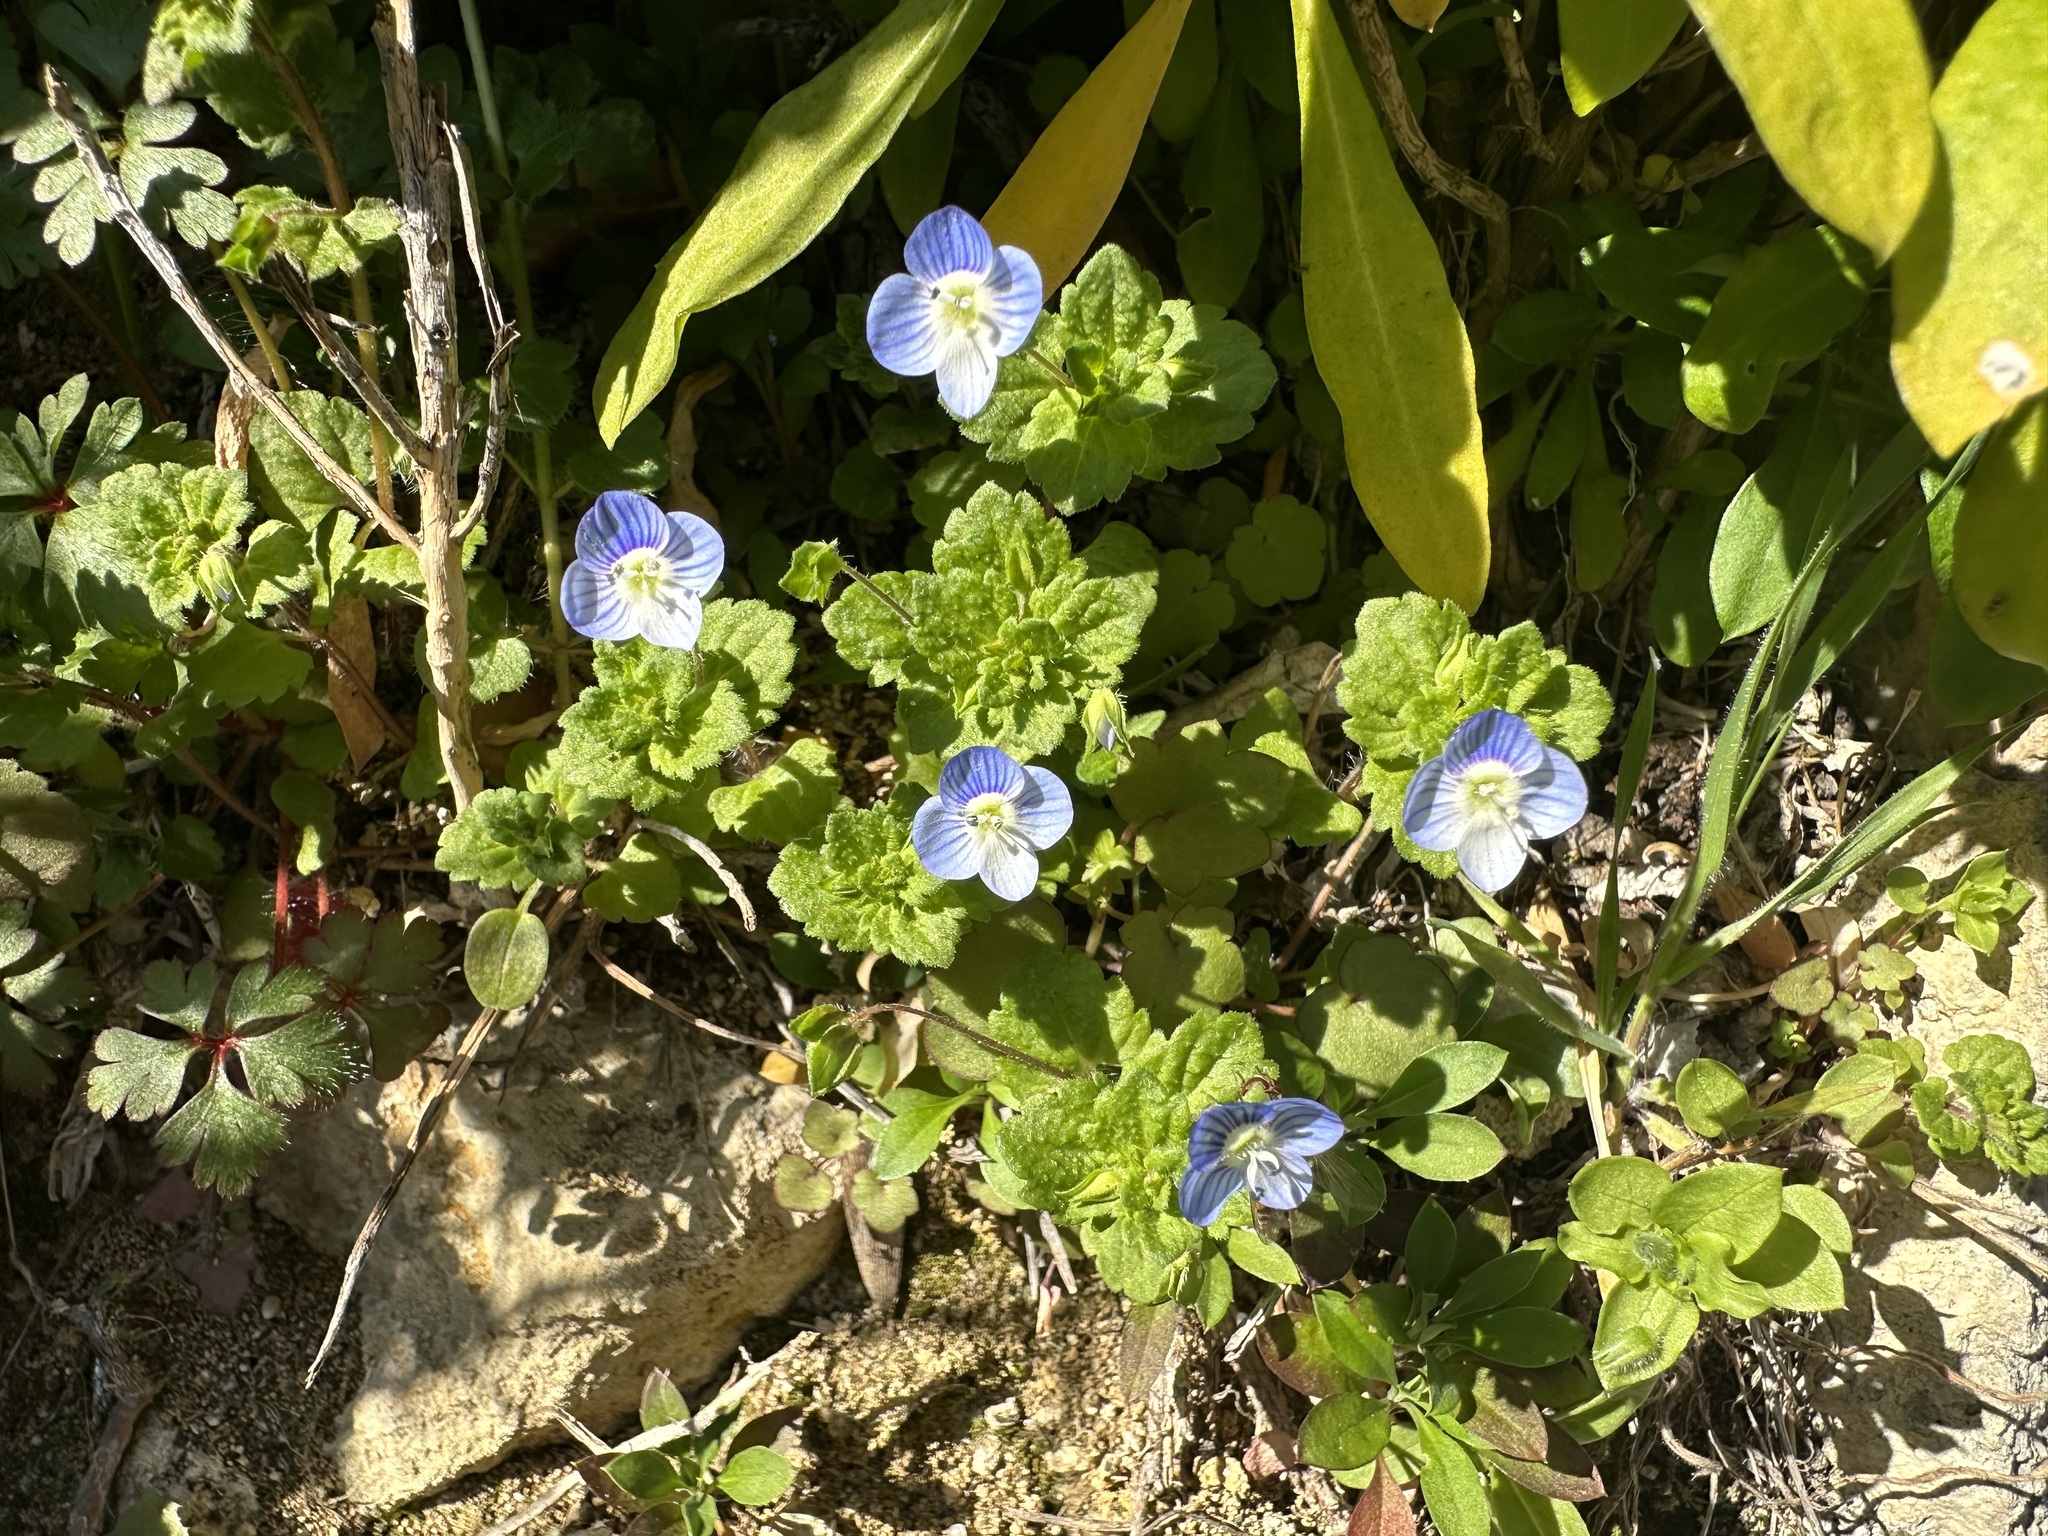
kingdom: Plantae
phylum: Tracheophyta
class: Magnoliopsida
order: Lamiales
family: Plantaginaceae
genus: Veronica
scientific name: Veronica persica
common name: Common field-speedwell
